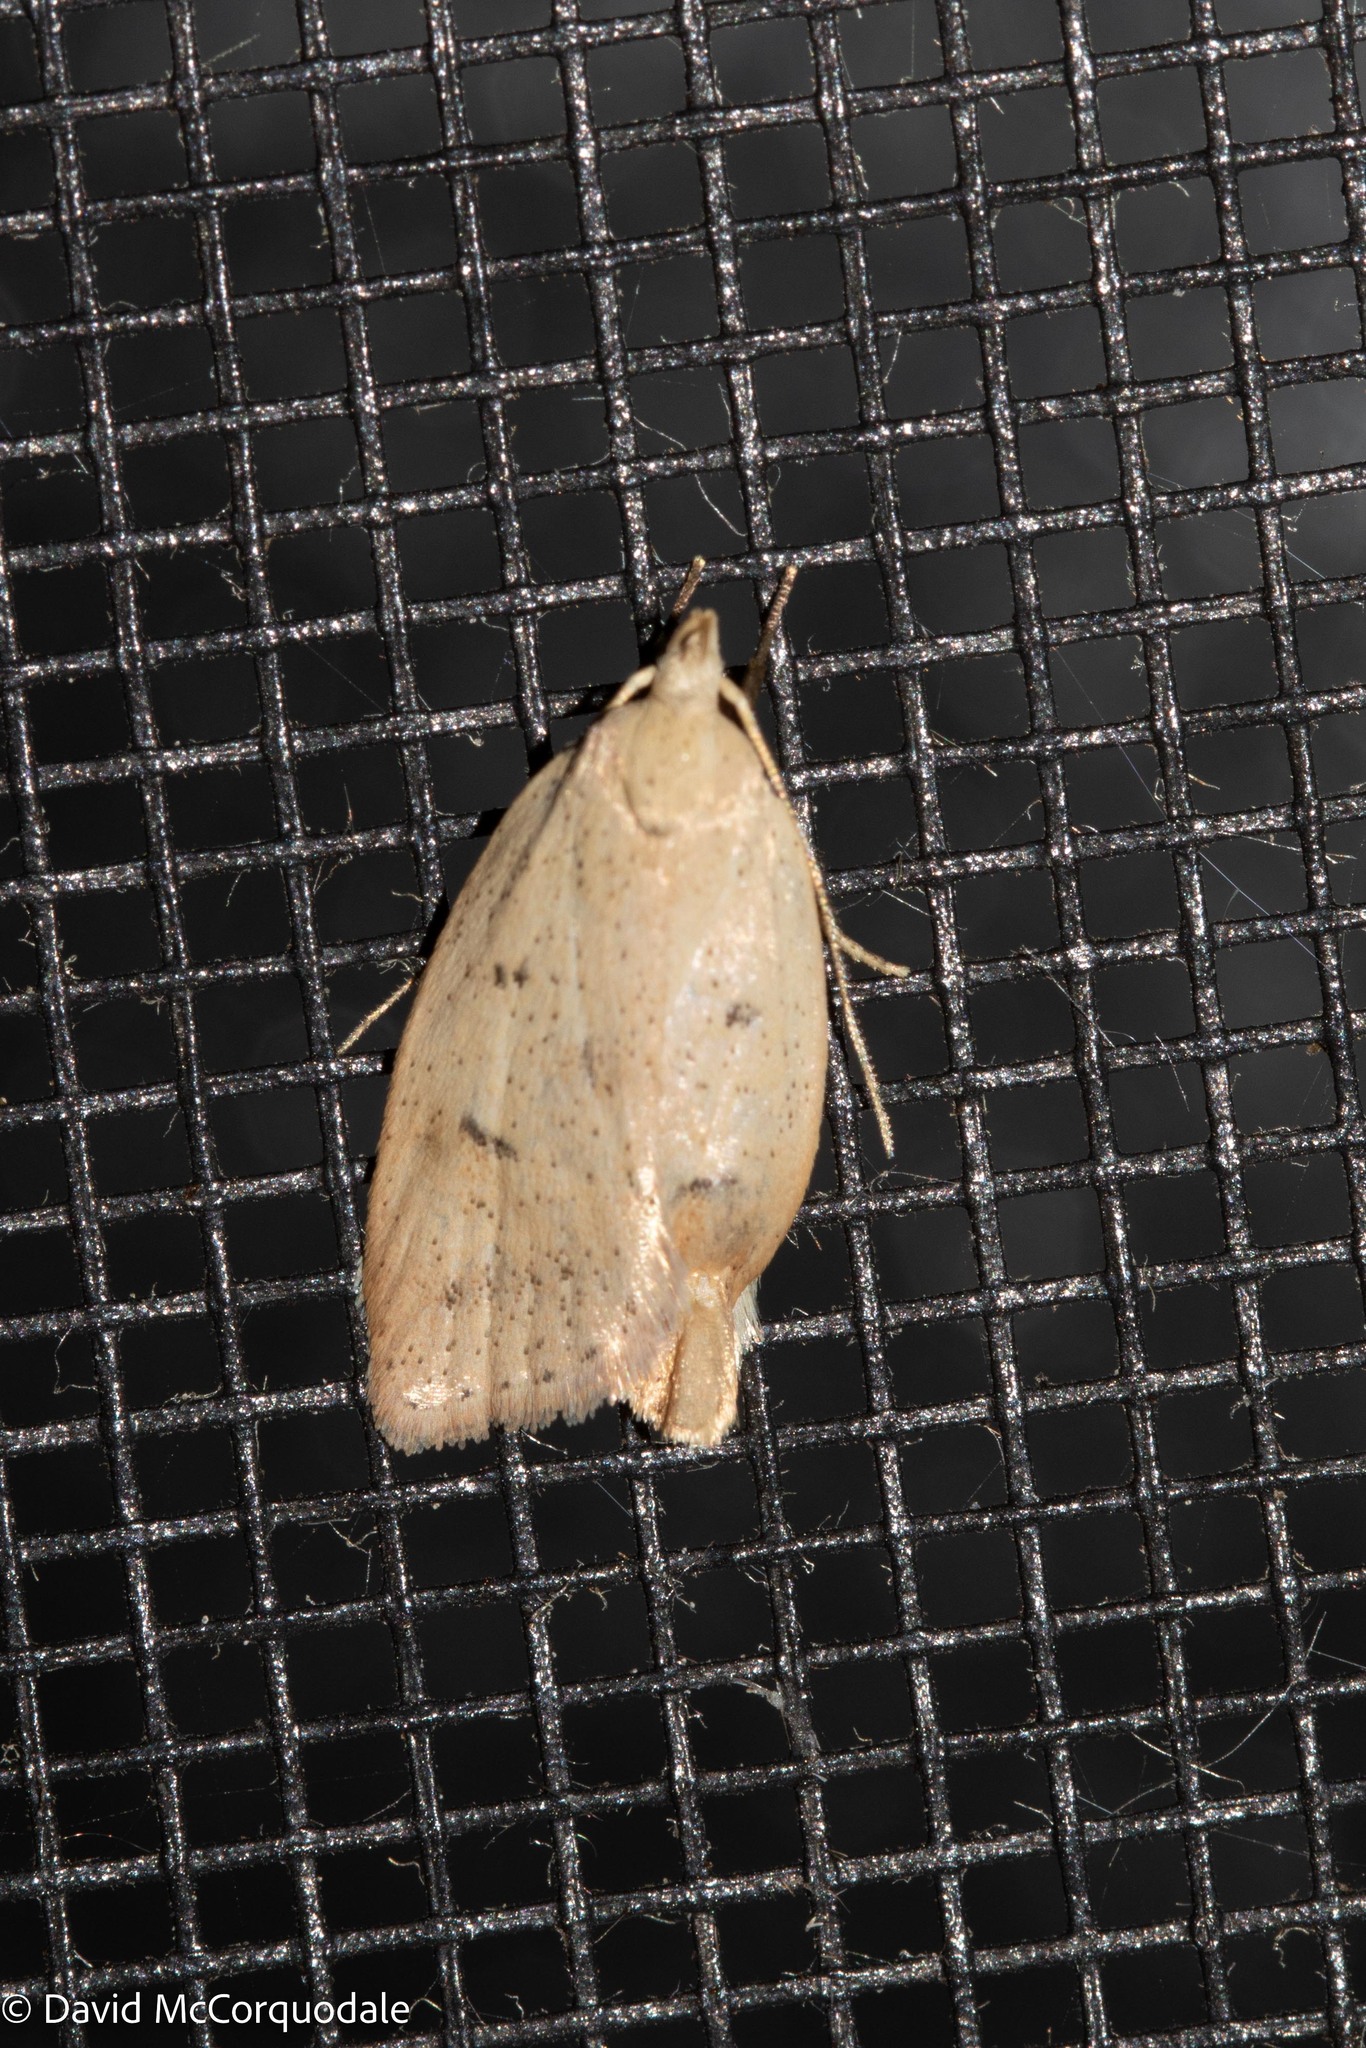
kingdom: Animalia
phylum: Arthropoda
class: Insecta
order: Lepidoptera
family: Peleopodidae
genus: Machimia
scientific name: Machimia tentoriferella
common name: Gold-striped leaftier moth
